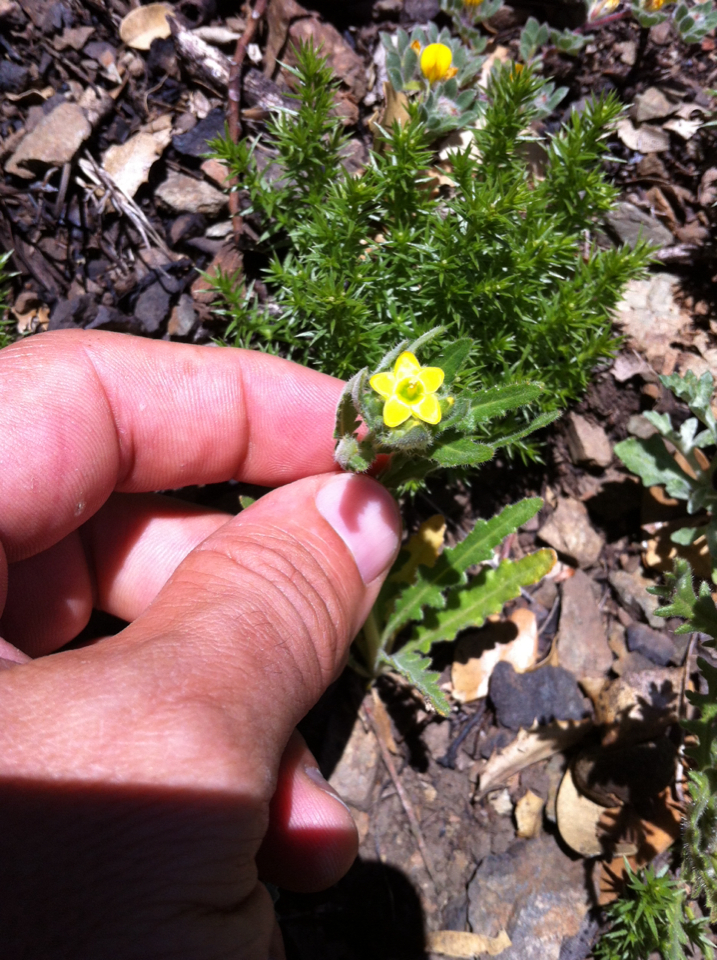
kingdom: Plantae
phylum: Tracheophyta
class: Magnoliopsida
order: Cornales
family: Loasaceae
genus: Mentzelia
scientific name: Mentzelia micrantha
